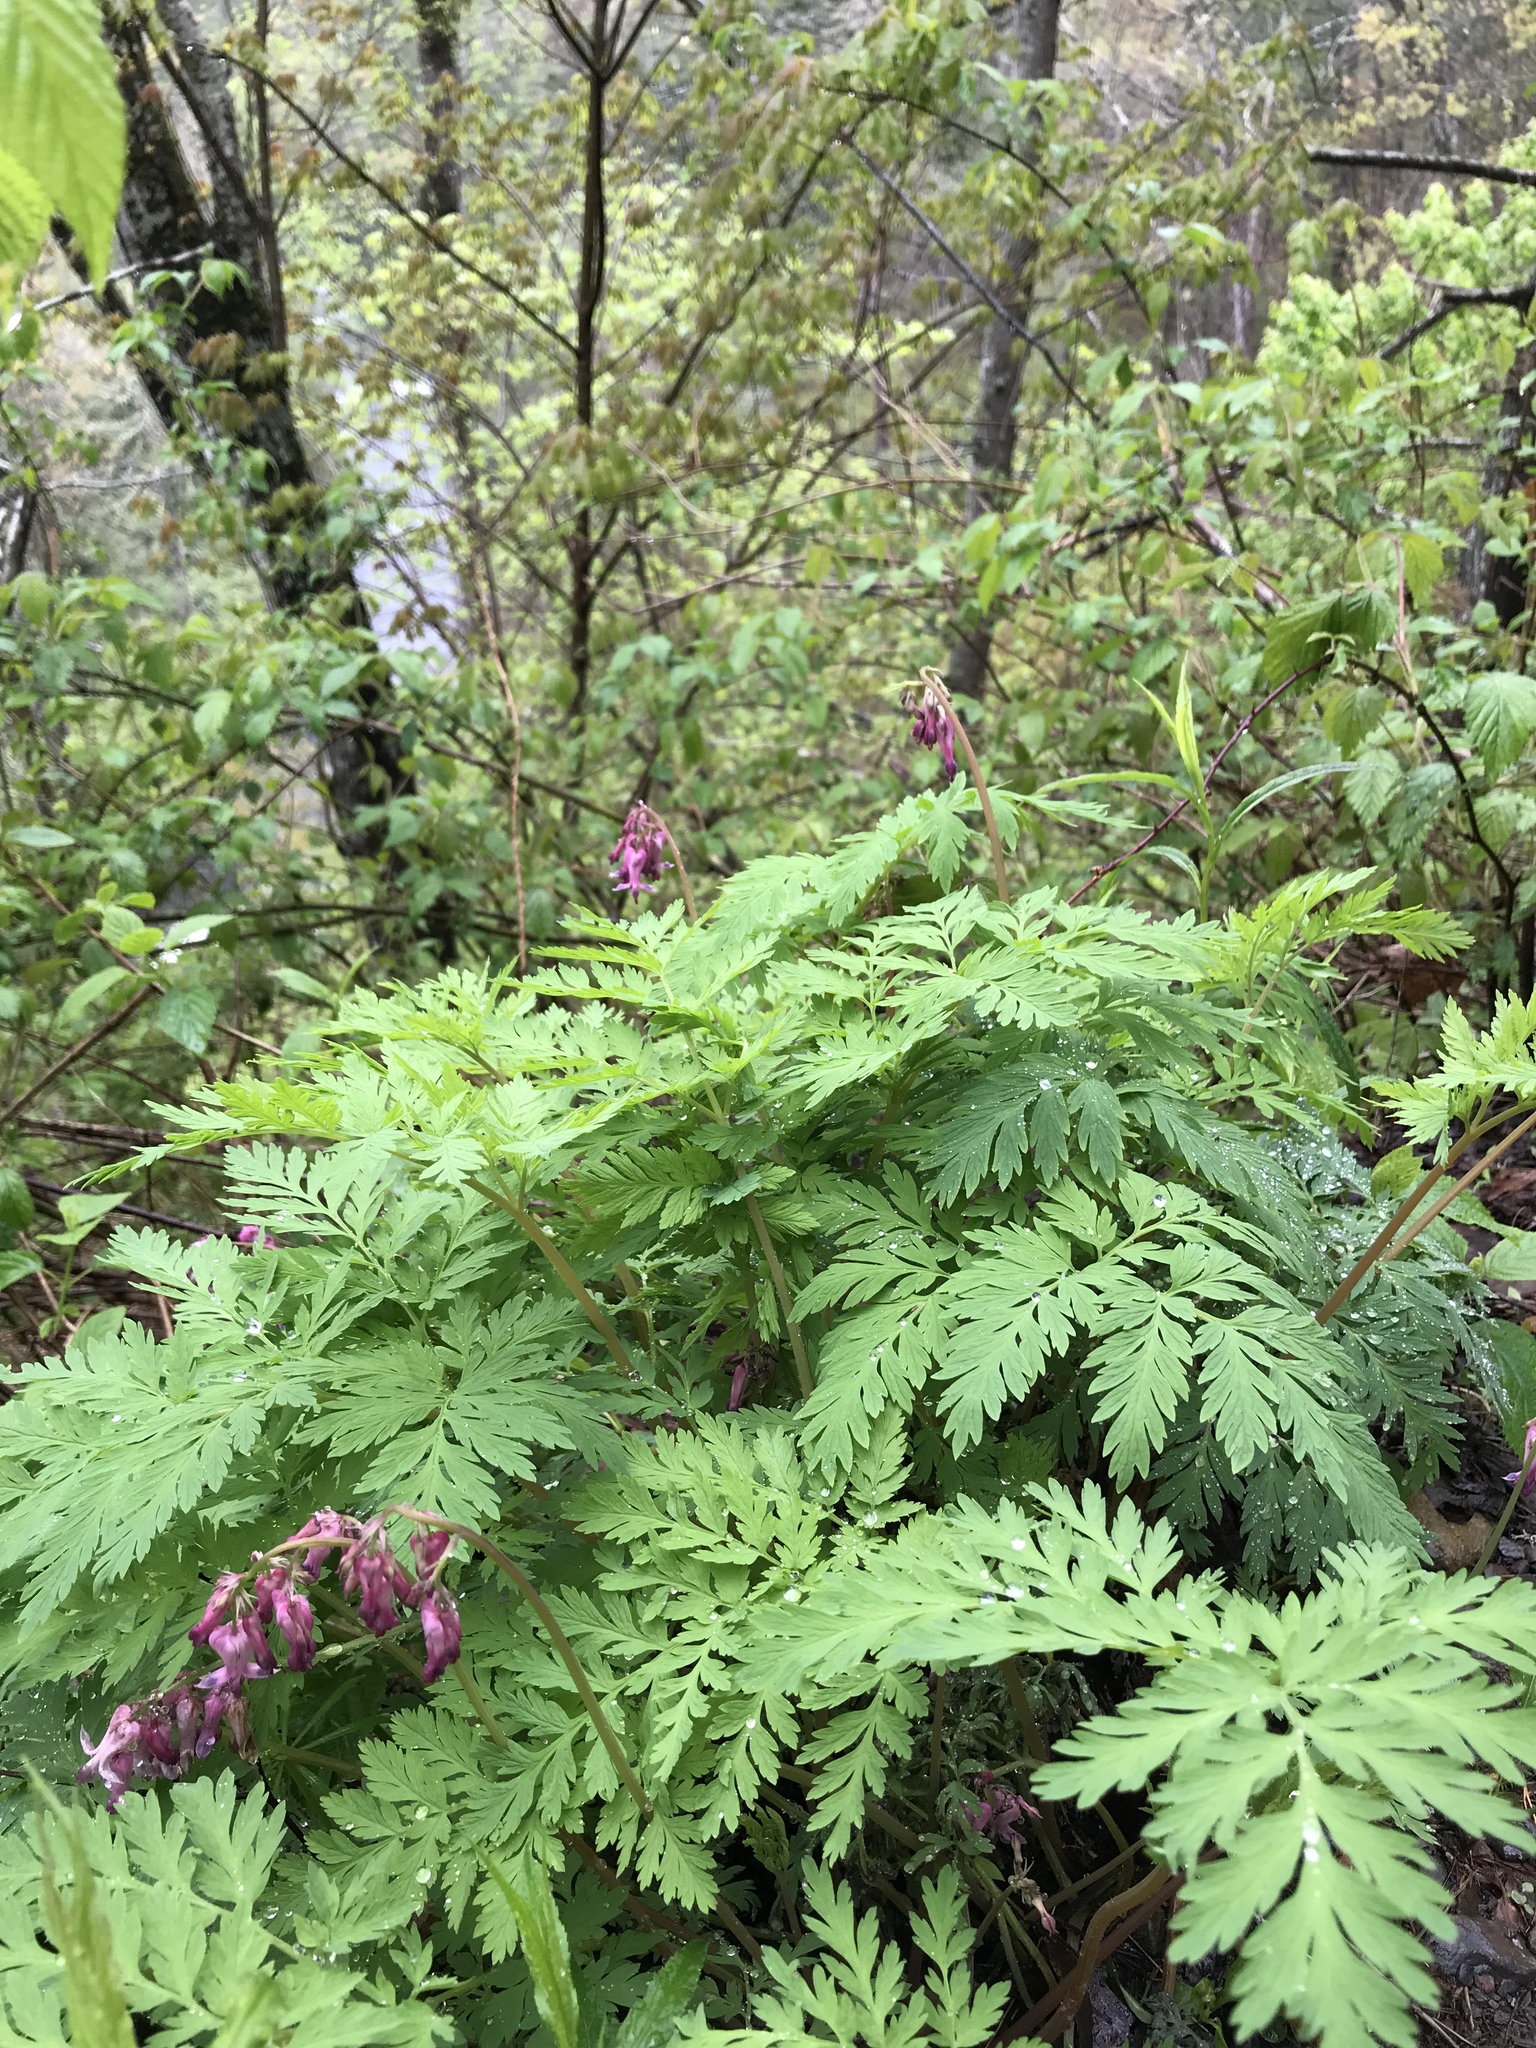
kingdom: Plantae
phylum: Tracheophyta
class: Magnoliopsida
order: Ranunculales
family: Papaveraceae
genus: Dicentra
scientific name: Dicentra eximia
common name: Turkey-corn
